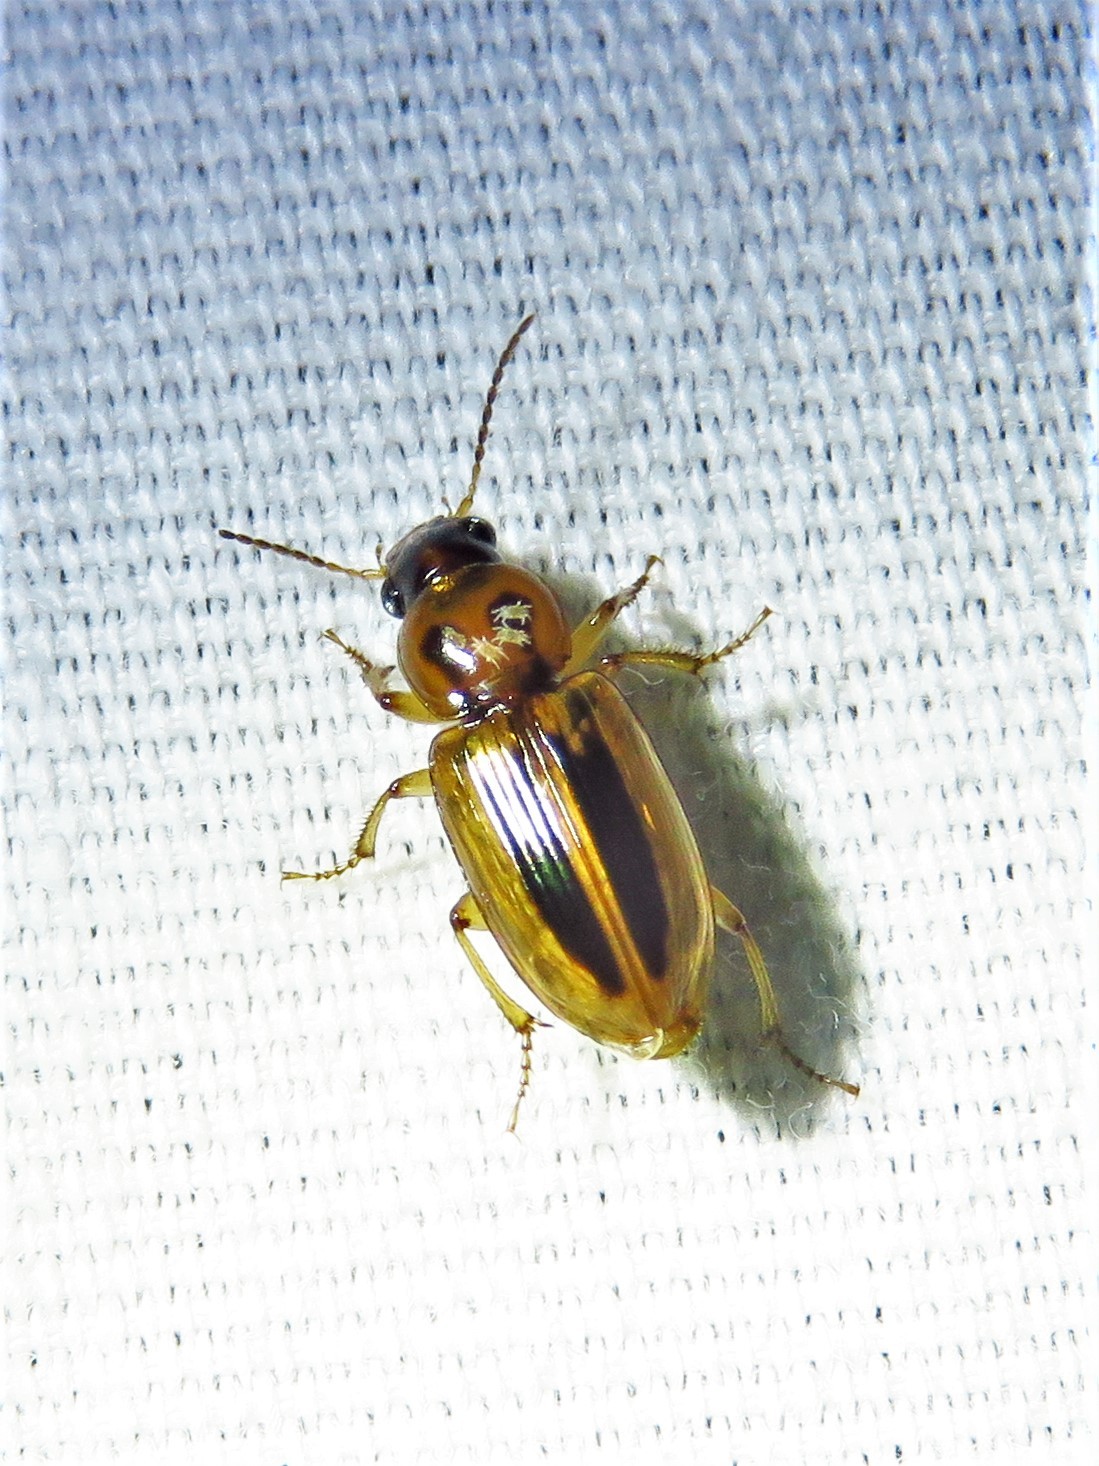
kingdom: Animalia
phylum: Arthropoda
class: Insecta
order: Coleoptera
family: Carabidae
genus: Stenolophus
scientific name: Stenolophus lineola
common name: Lined stenolophus
